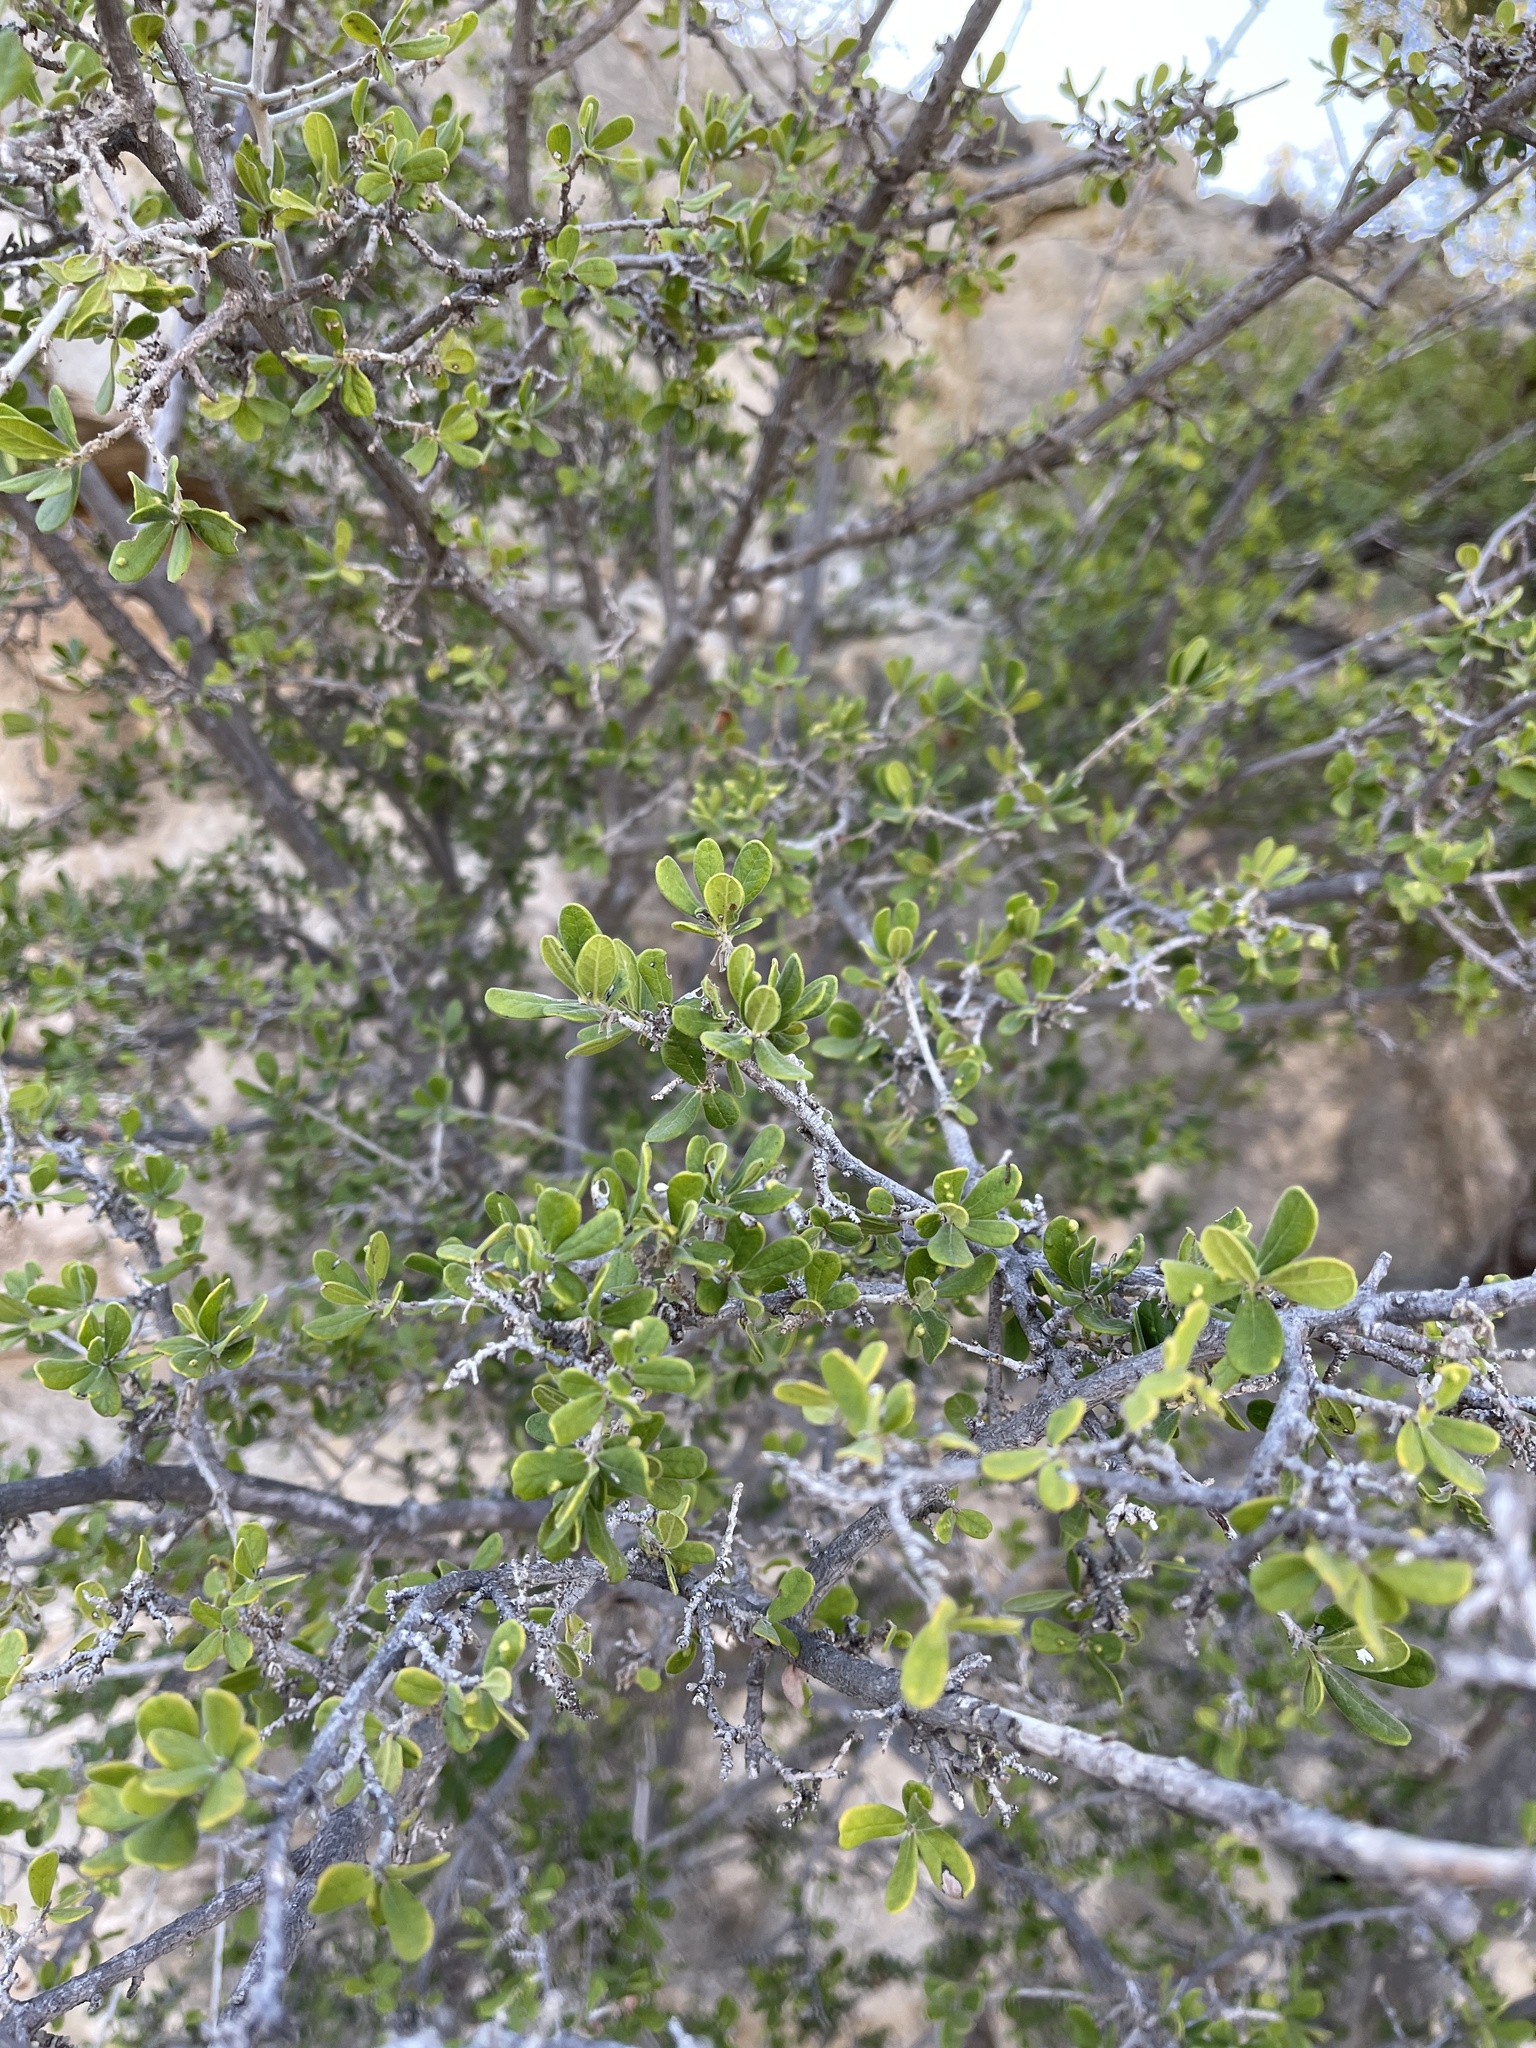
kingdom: Plantae
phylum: Tracheophyta
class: Magnoliopsida
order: Ericales
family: Ebenaceae
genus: Diospyros
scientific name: Diospyros texana
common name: Texas persimmon
